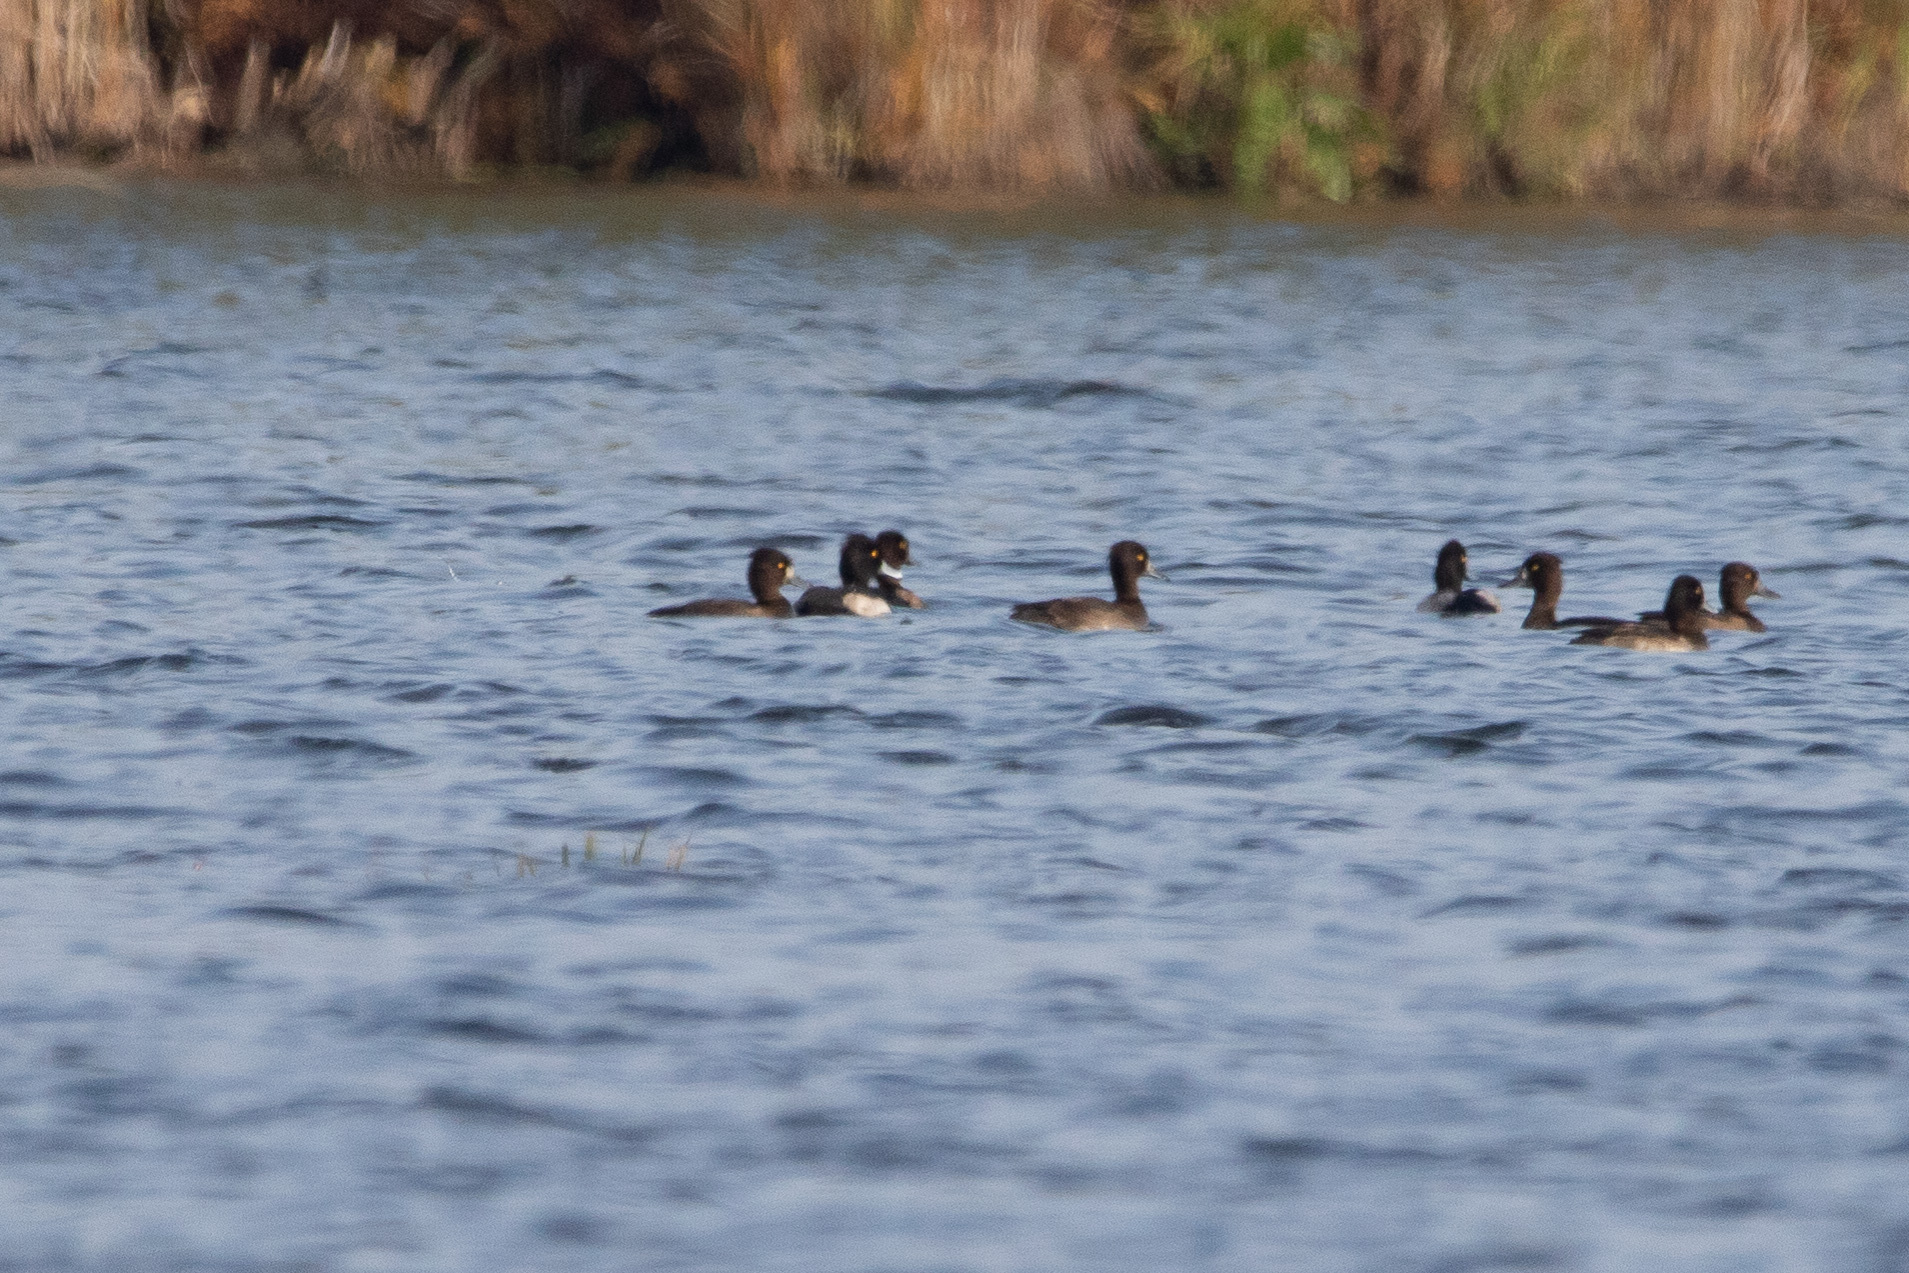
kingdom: Animalia
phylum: Chordata
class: Aves
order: Anseriformes
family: Anatidae
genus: Aythya
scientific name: Aythya fuligula
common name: Tufted duck
